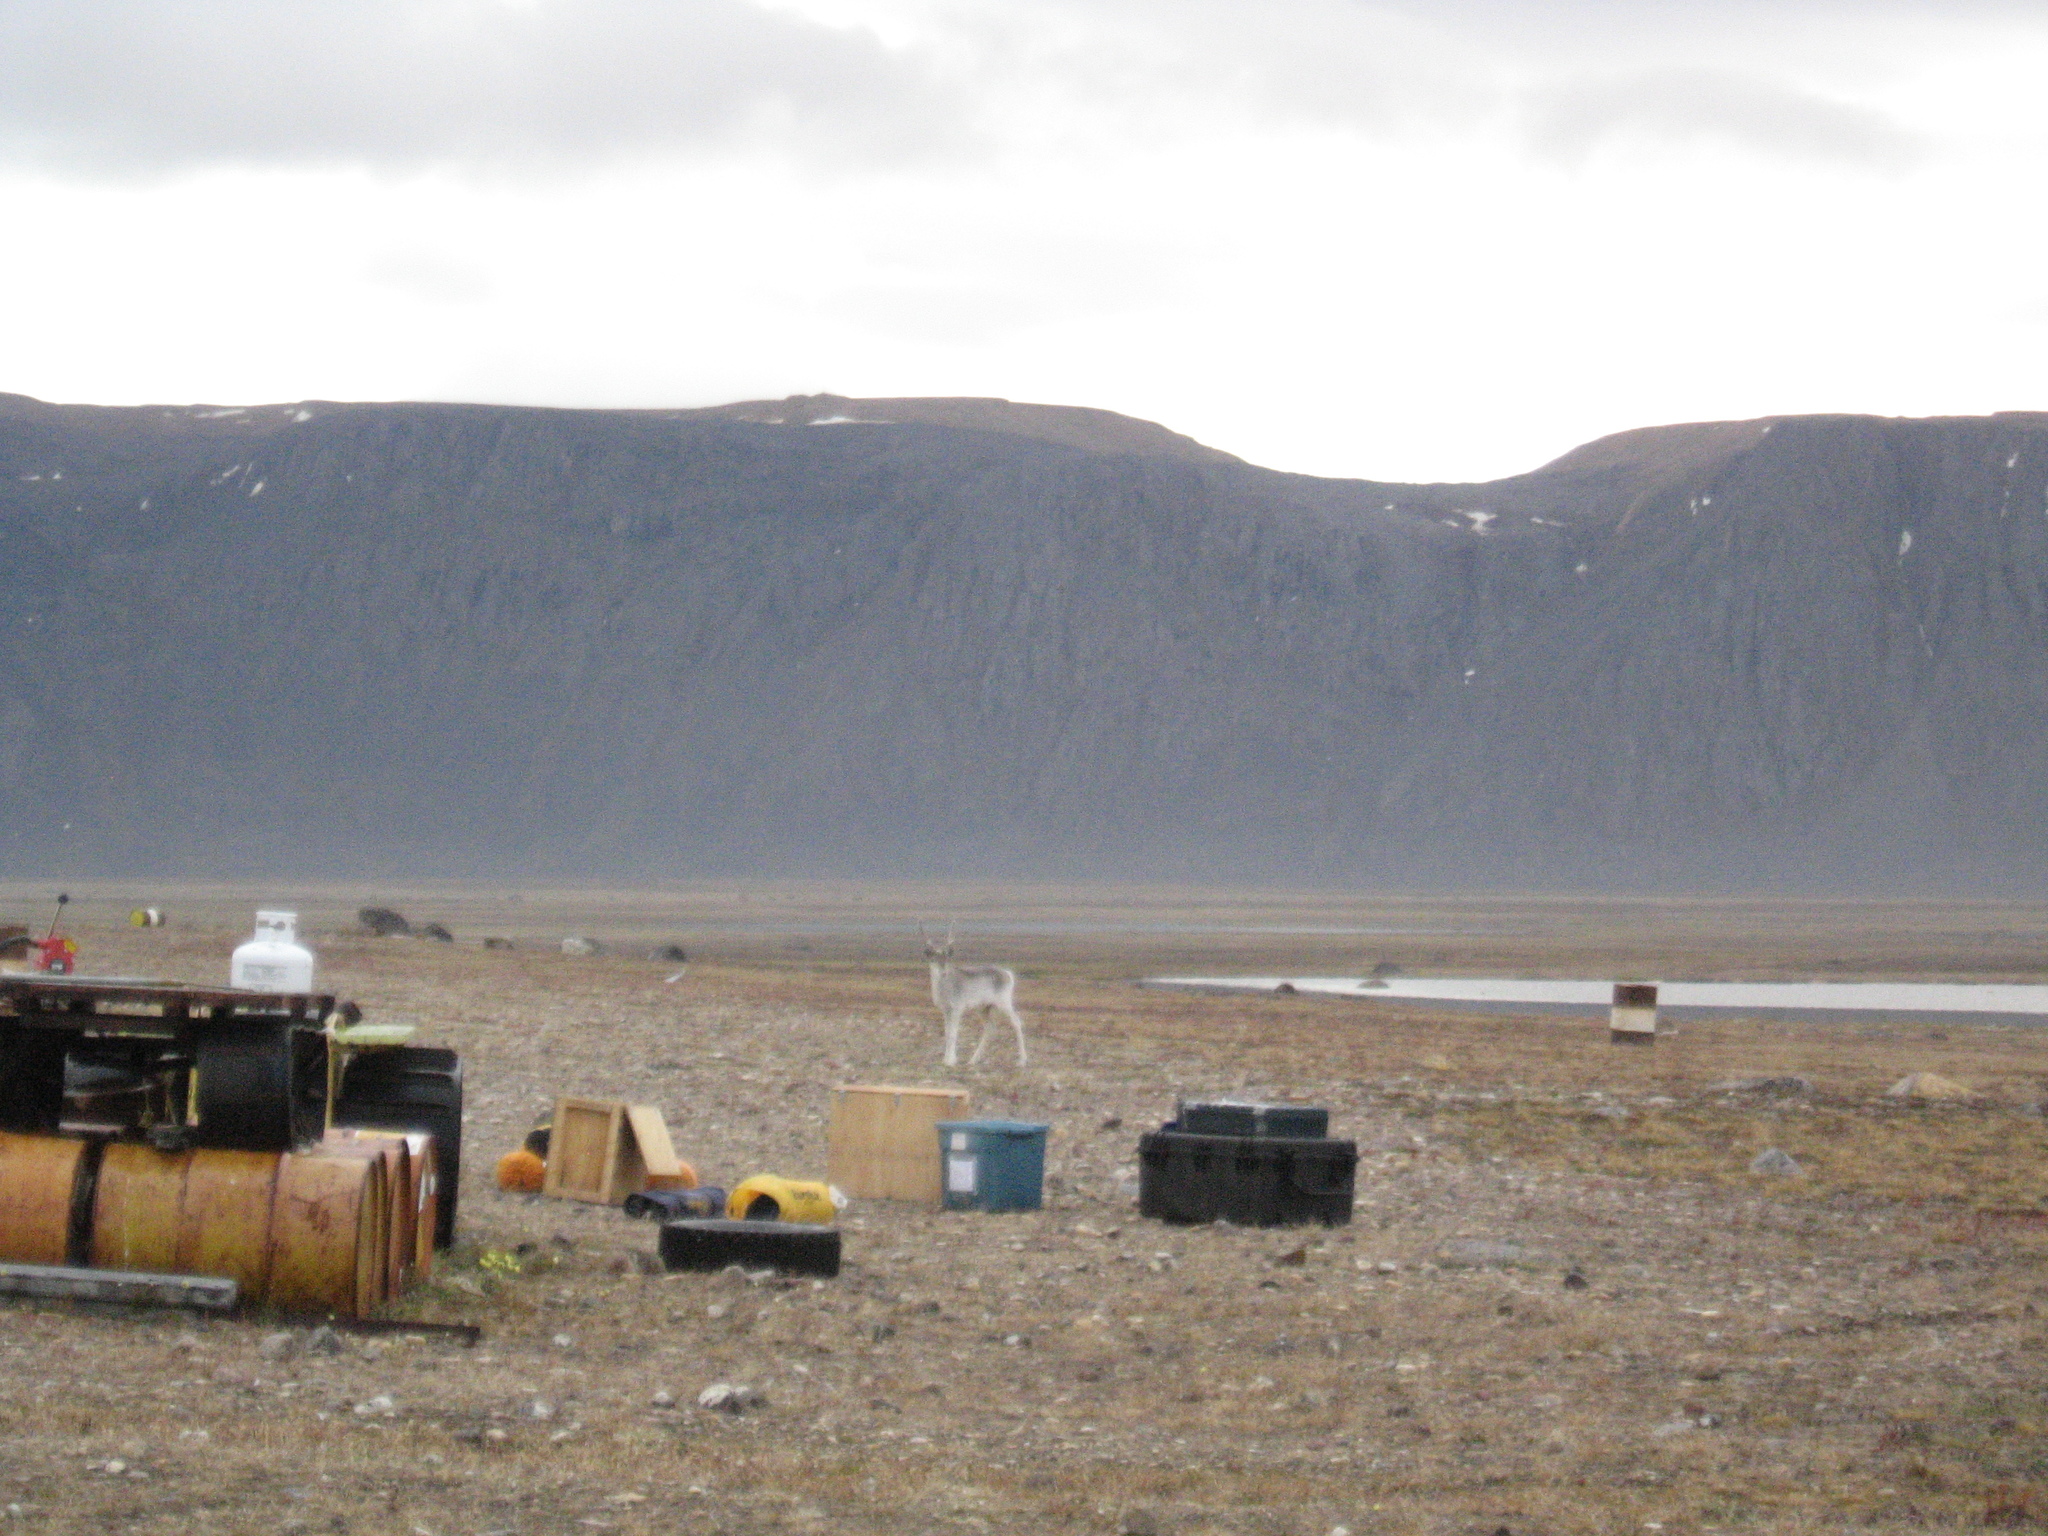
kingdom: Animalia
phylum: Chordata
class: Mammalia
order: Artiodactyla
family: Cervidae
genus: Rangifer
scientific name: Rangifer tarandus
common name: Reindeer
